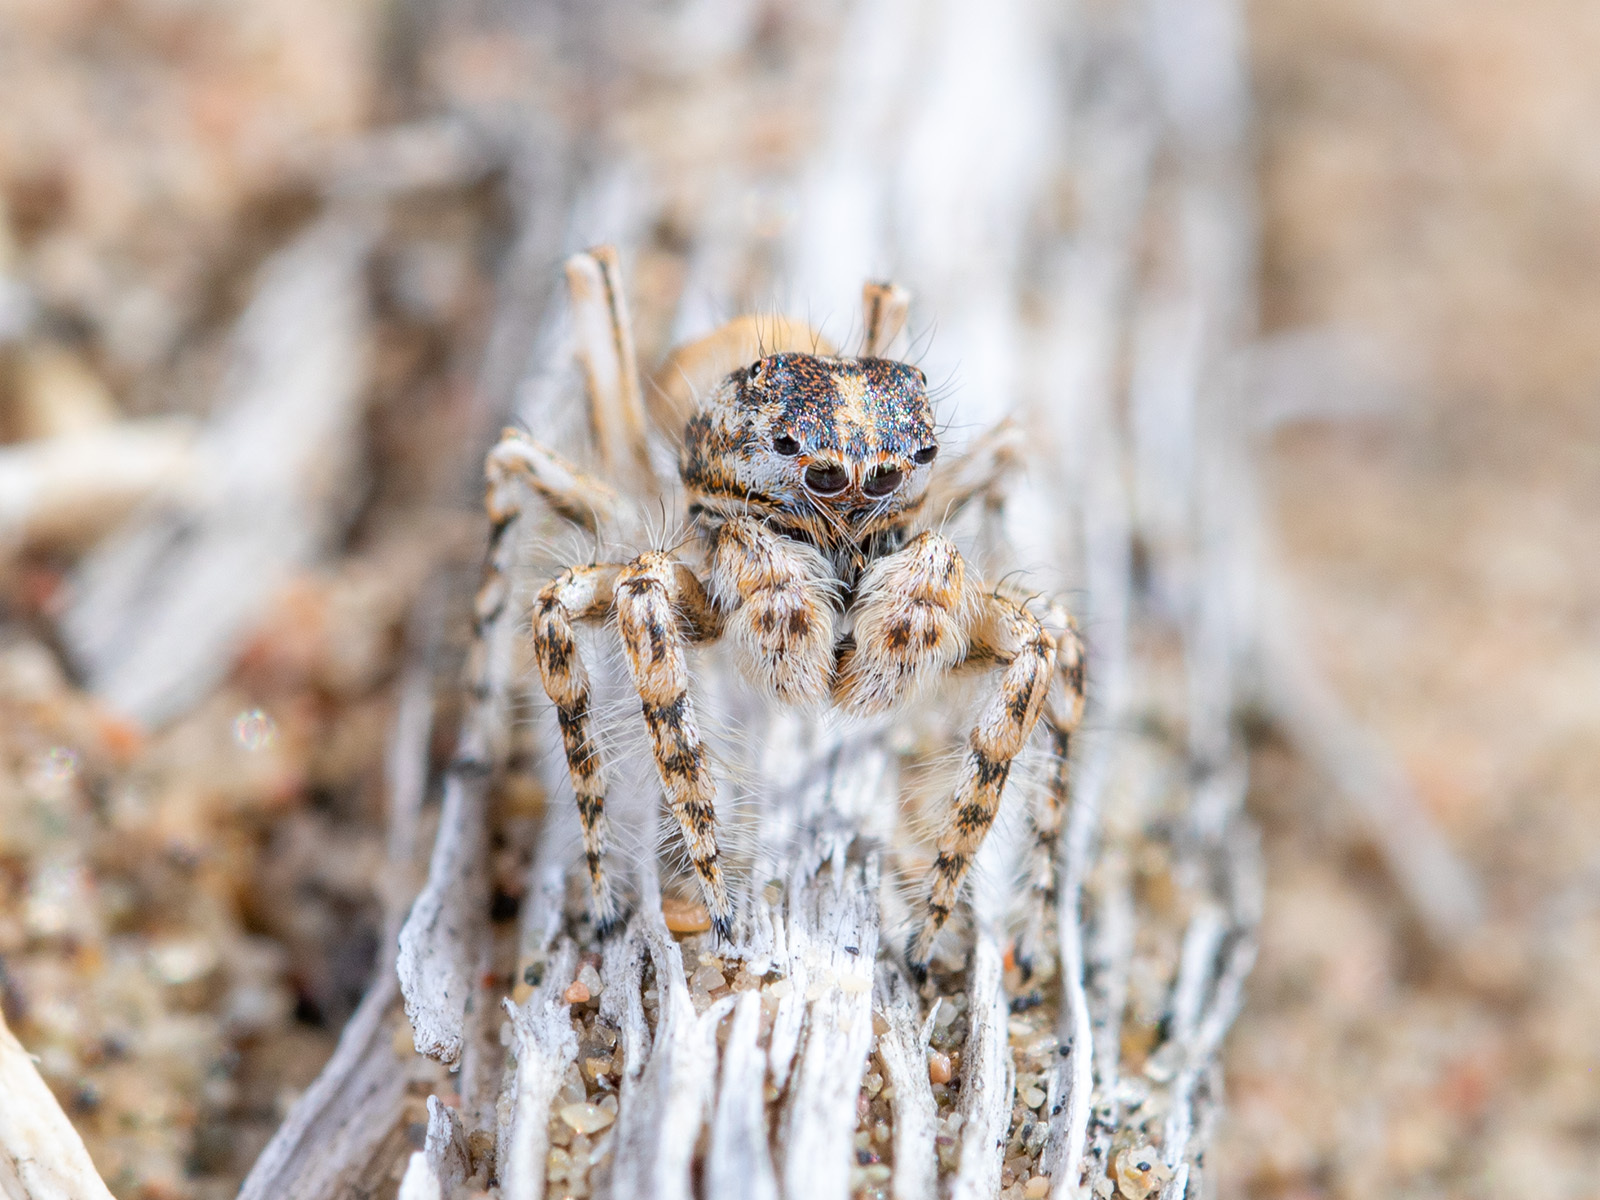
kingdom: Animalia
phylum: Arthropoda
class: Arachnida
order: Araneae
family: Salticidae
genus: Yllenus
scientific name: Yllenus turkestanicus
